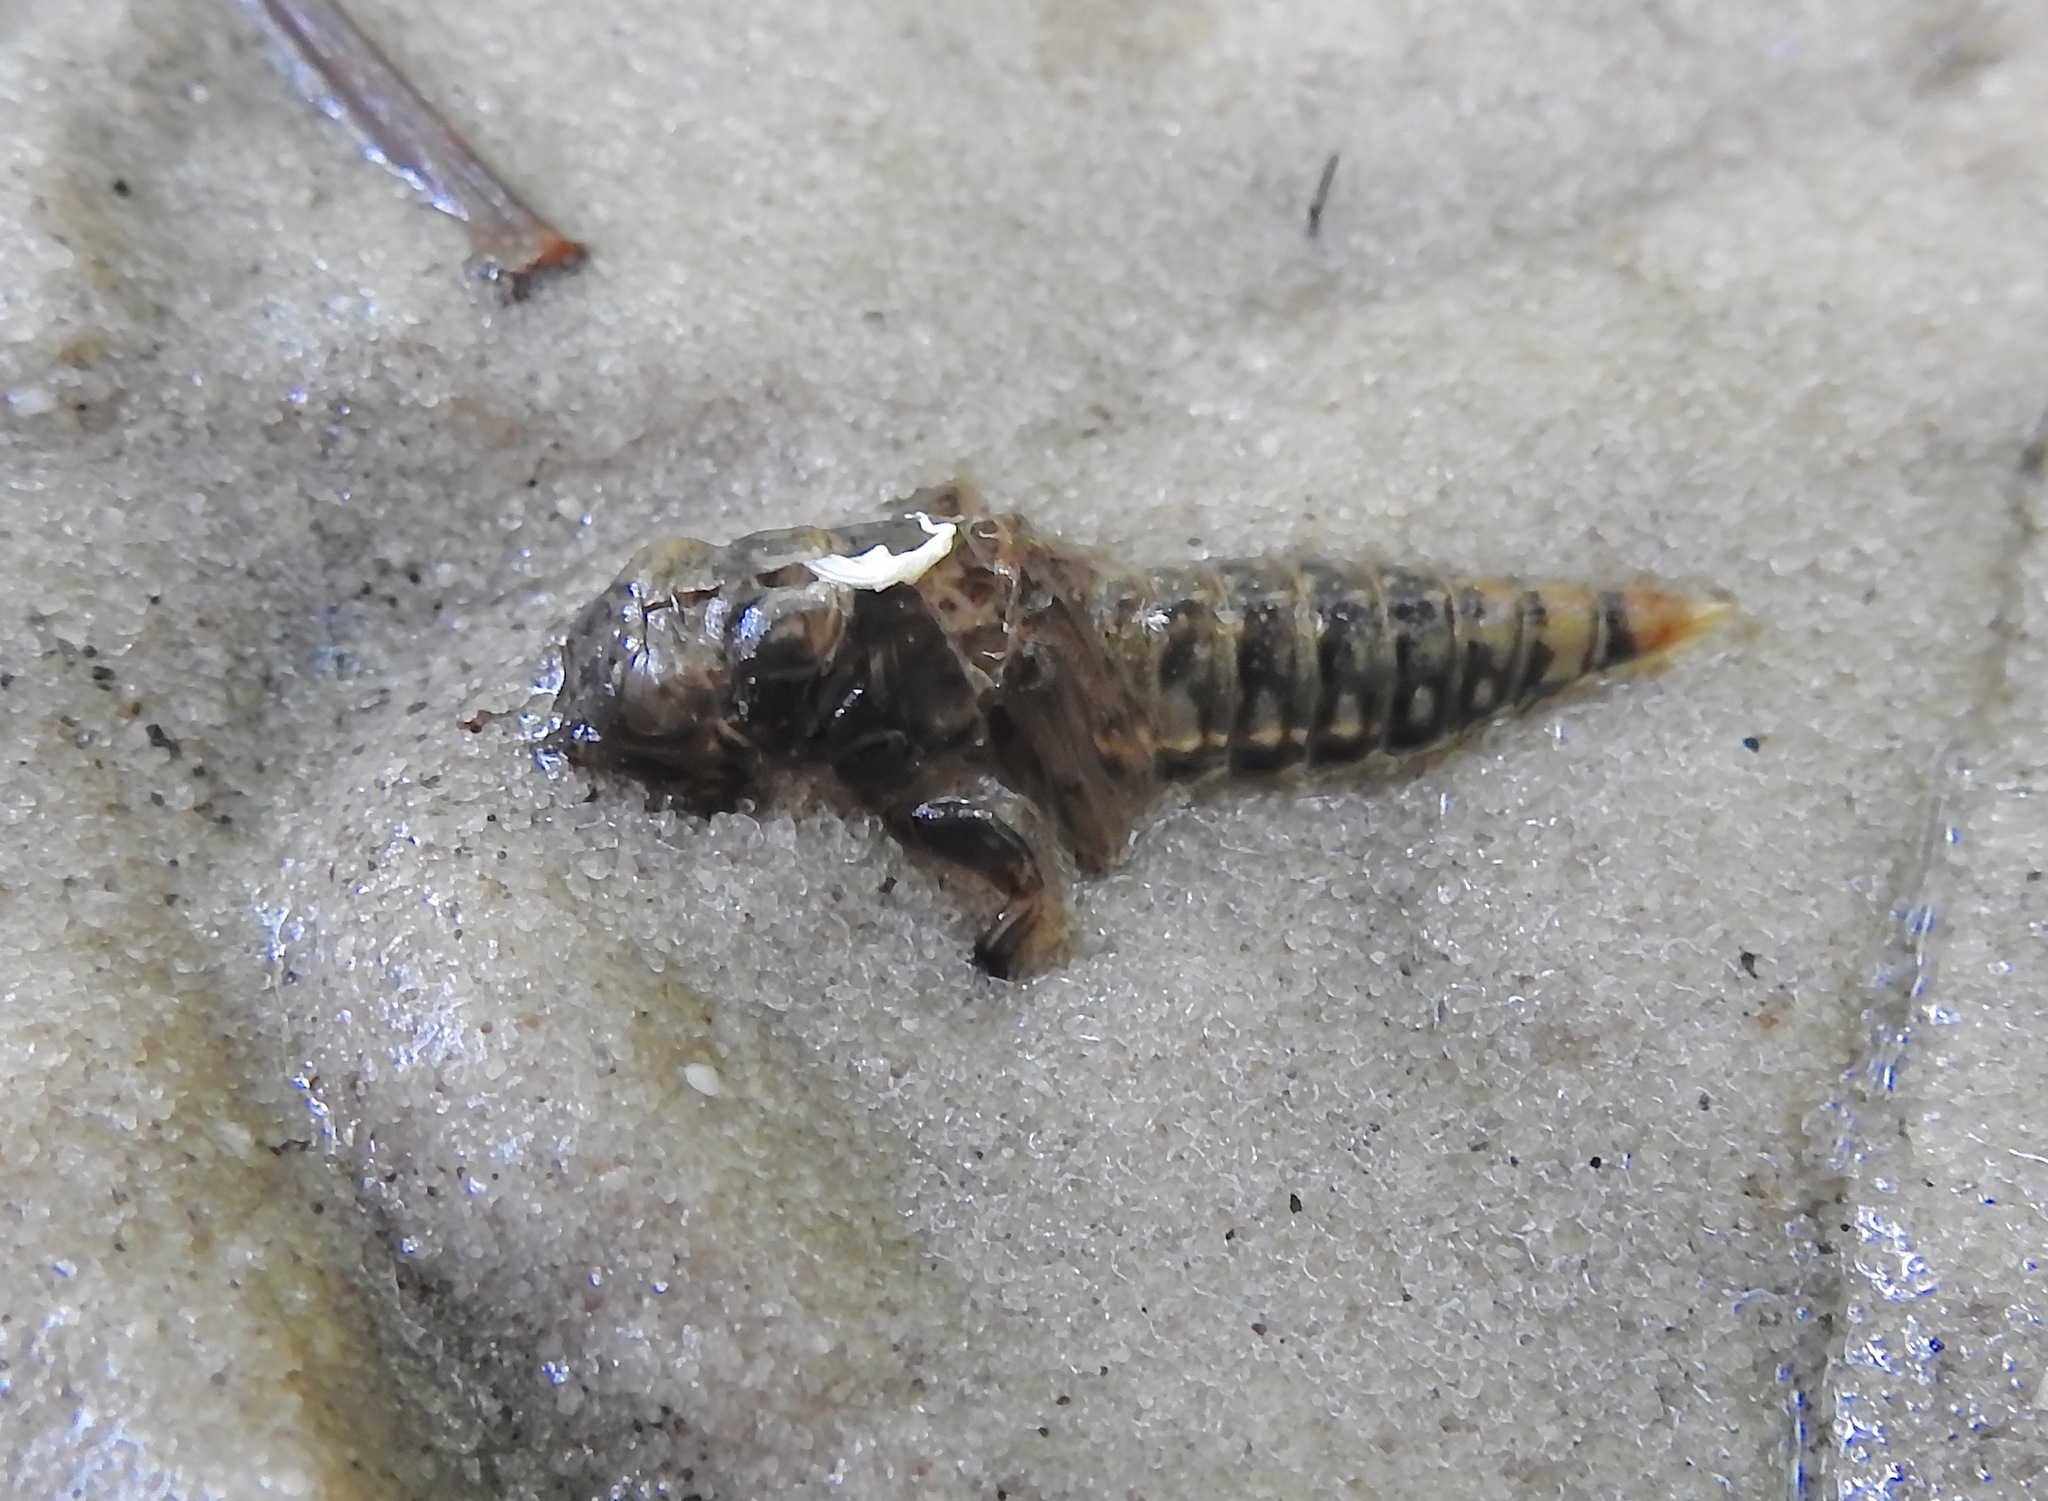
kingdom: Animalia
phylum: Arthropoda
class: Insecta
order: Odonata
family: Gomphidae
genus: Progomphus
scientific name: Progomphus obscurus
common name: Common sanddragon
